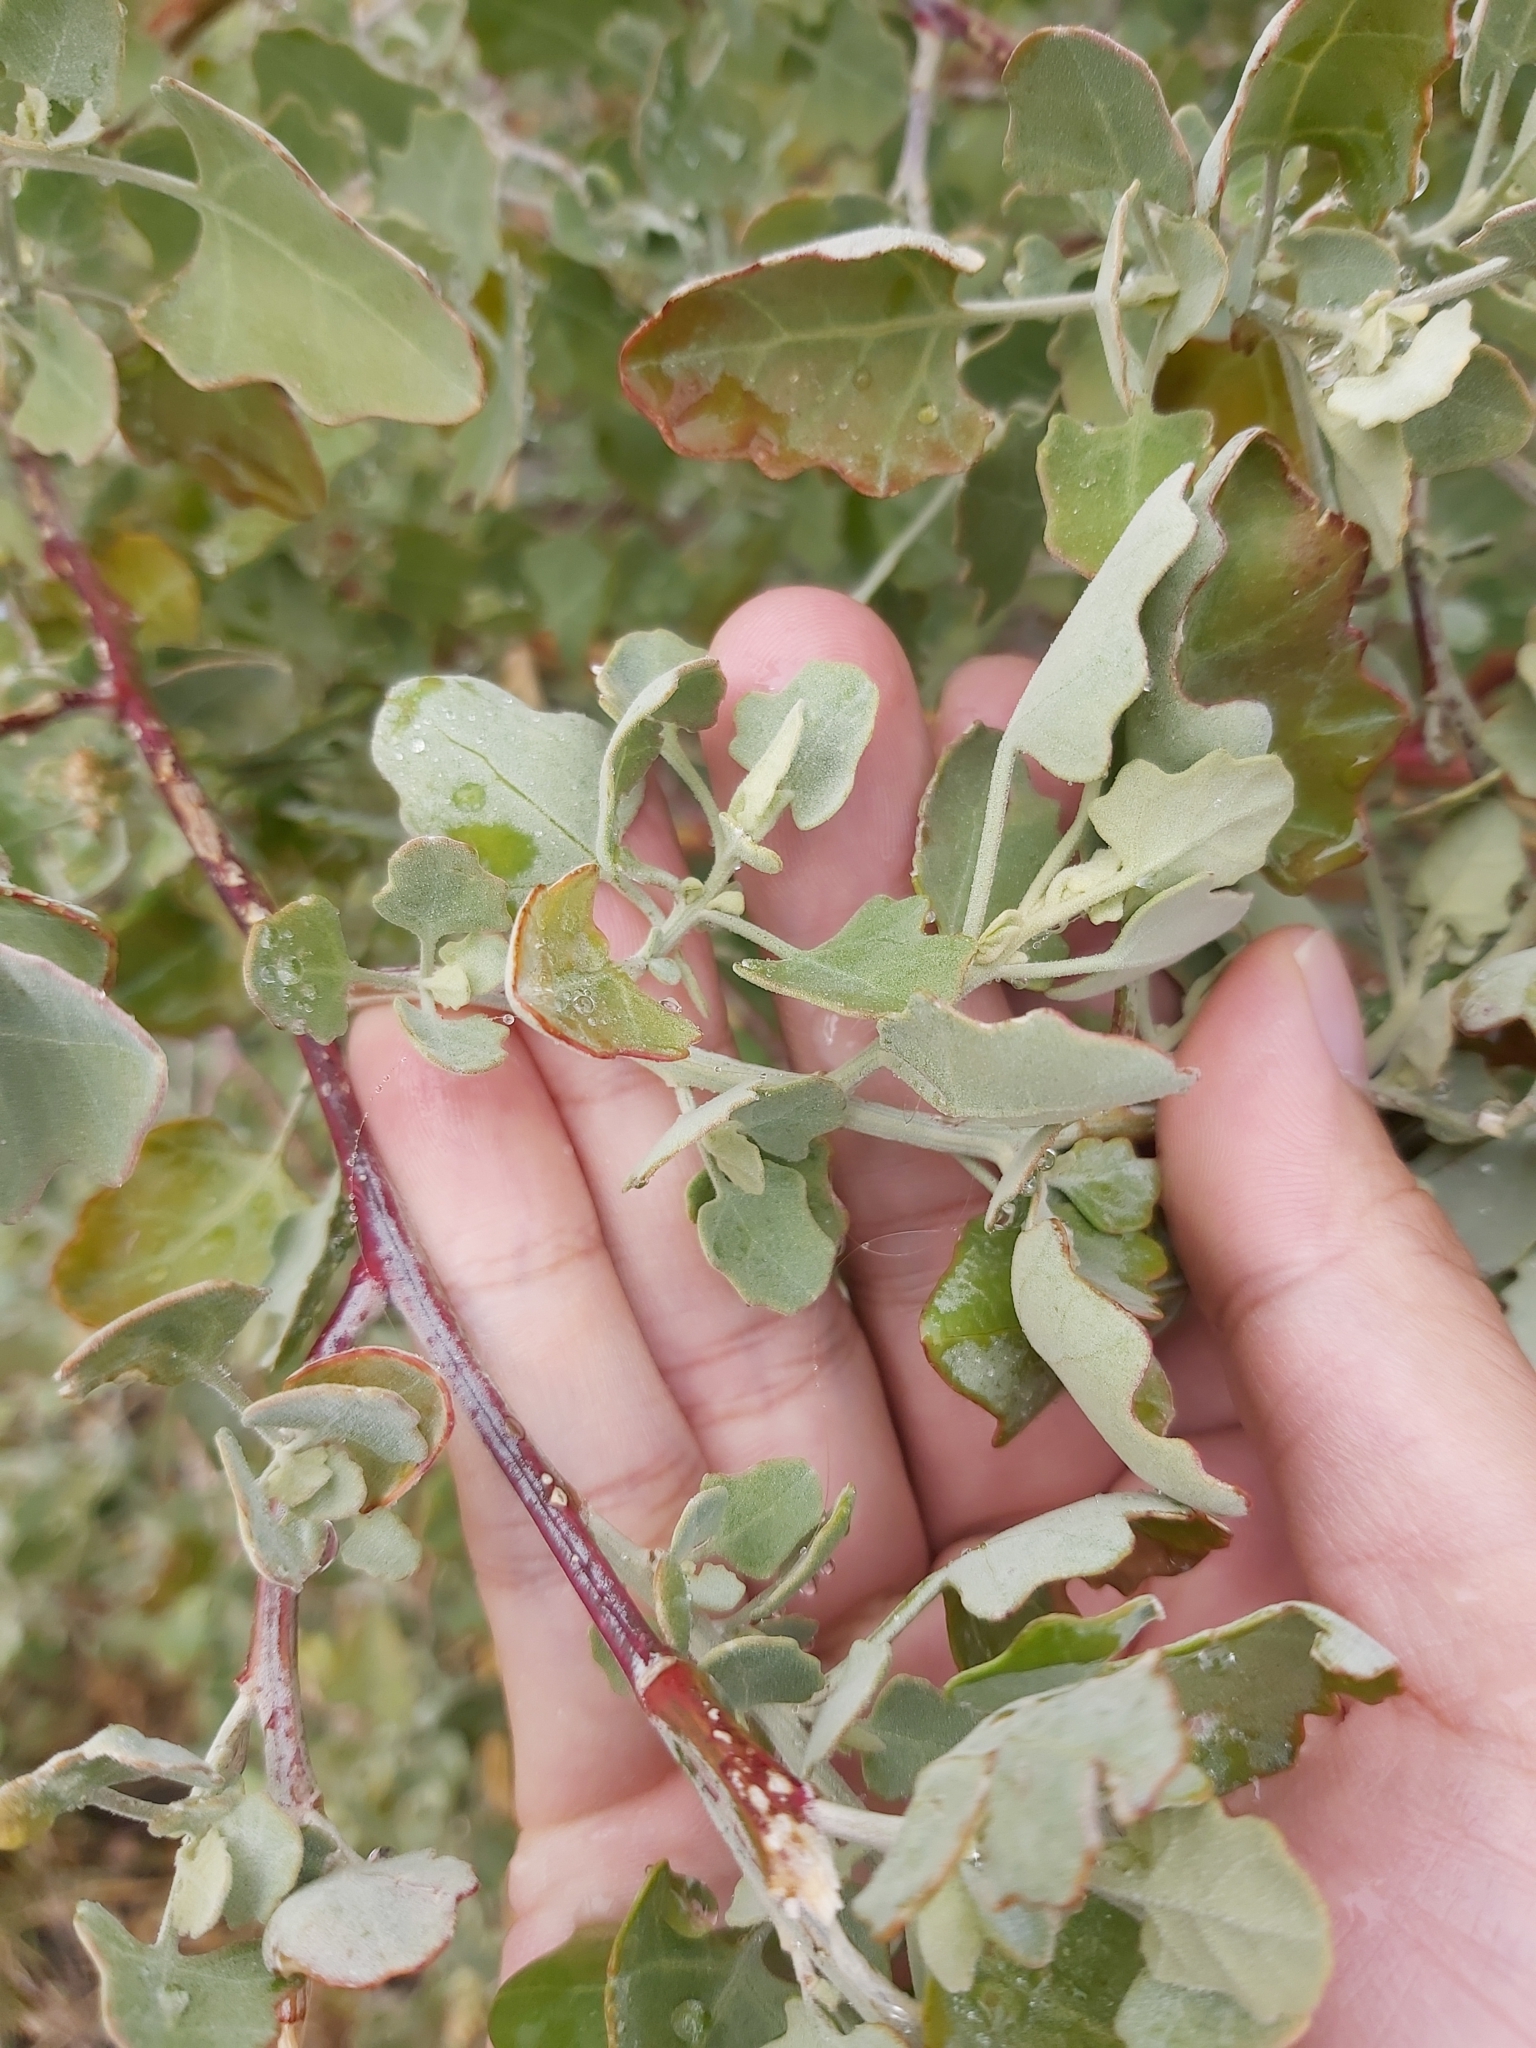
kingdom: Plantae
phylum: Tracheophyta
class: Magnoliopsida
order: Caryophyllales
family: Amaranthaceae
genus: Chenopodium
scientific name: Chenopodium oahuense
